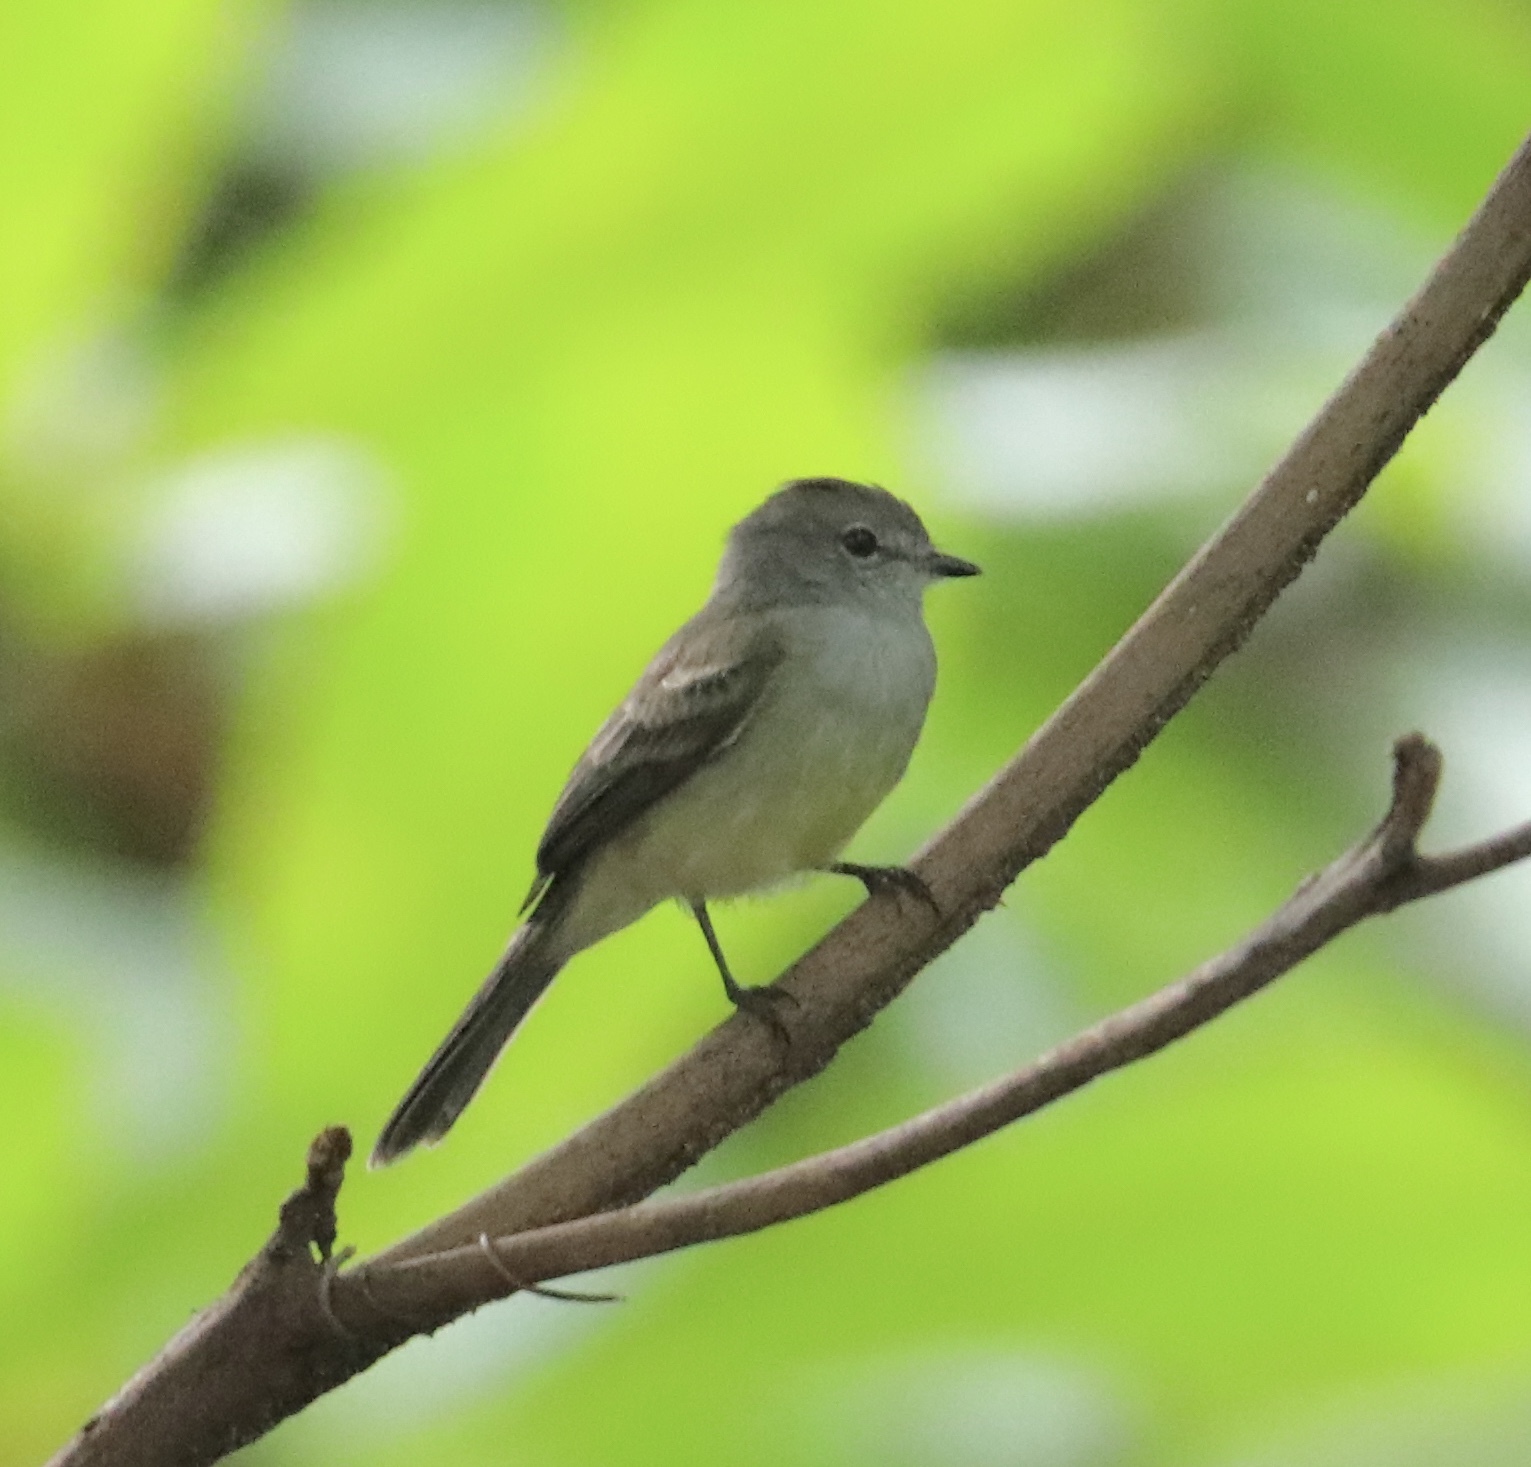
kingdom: Animalia
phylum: Chordata
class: Aves
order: Passeriformes
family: Tyrannidae
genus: Sublegatus
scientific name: Sublegatus arenarum
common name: Northern scrub-flycatcher
